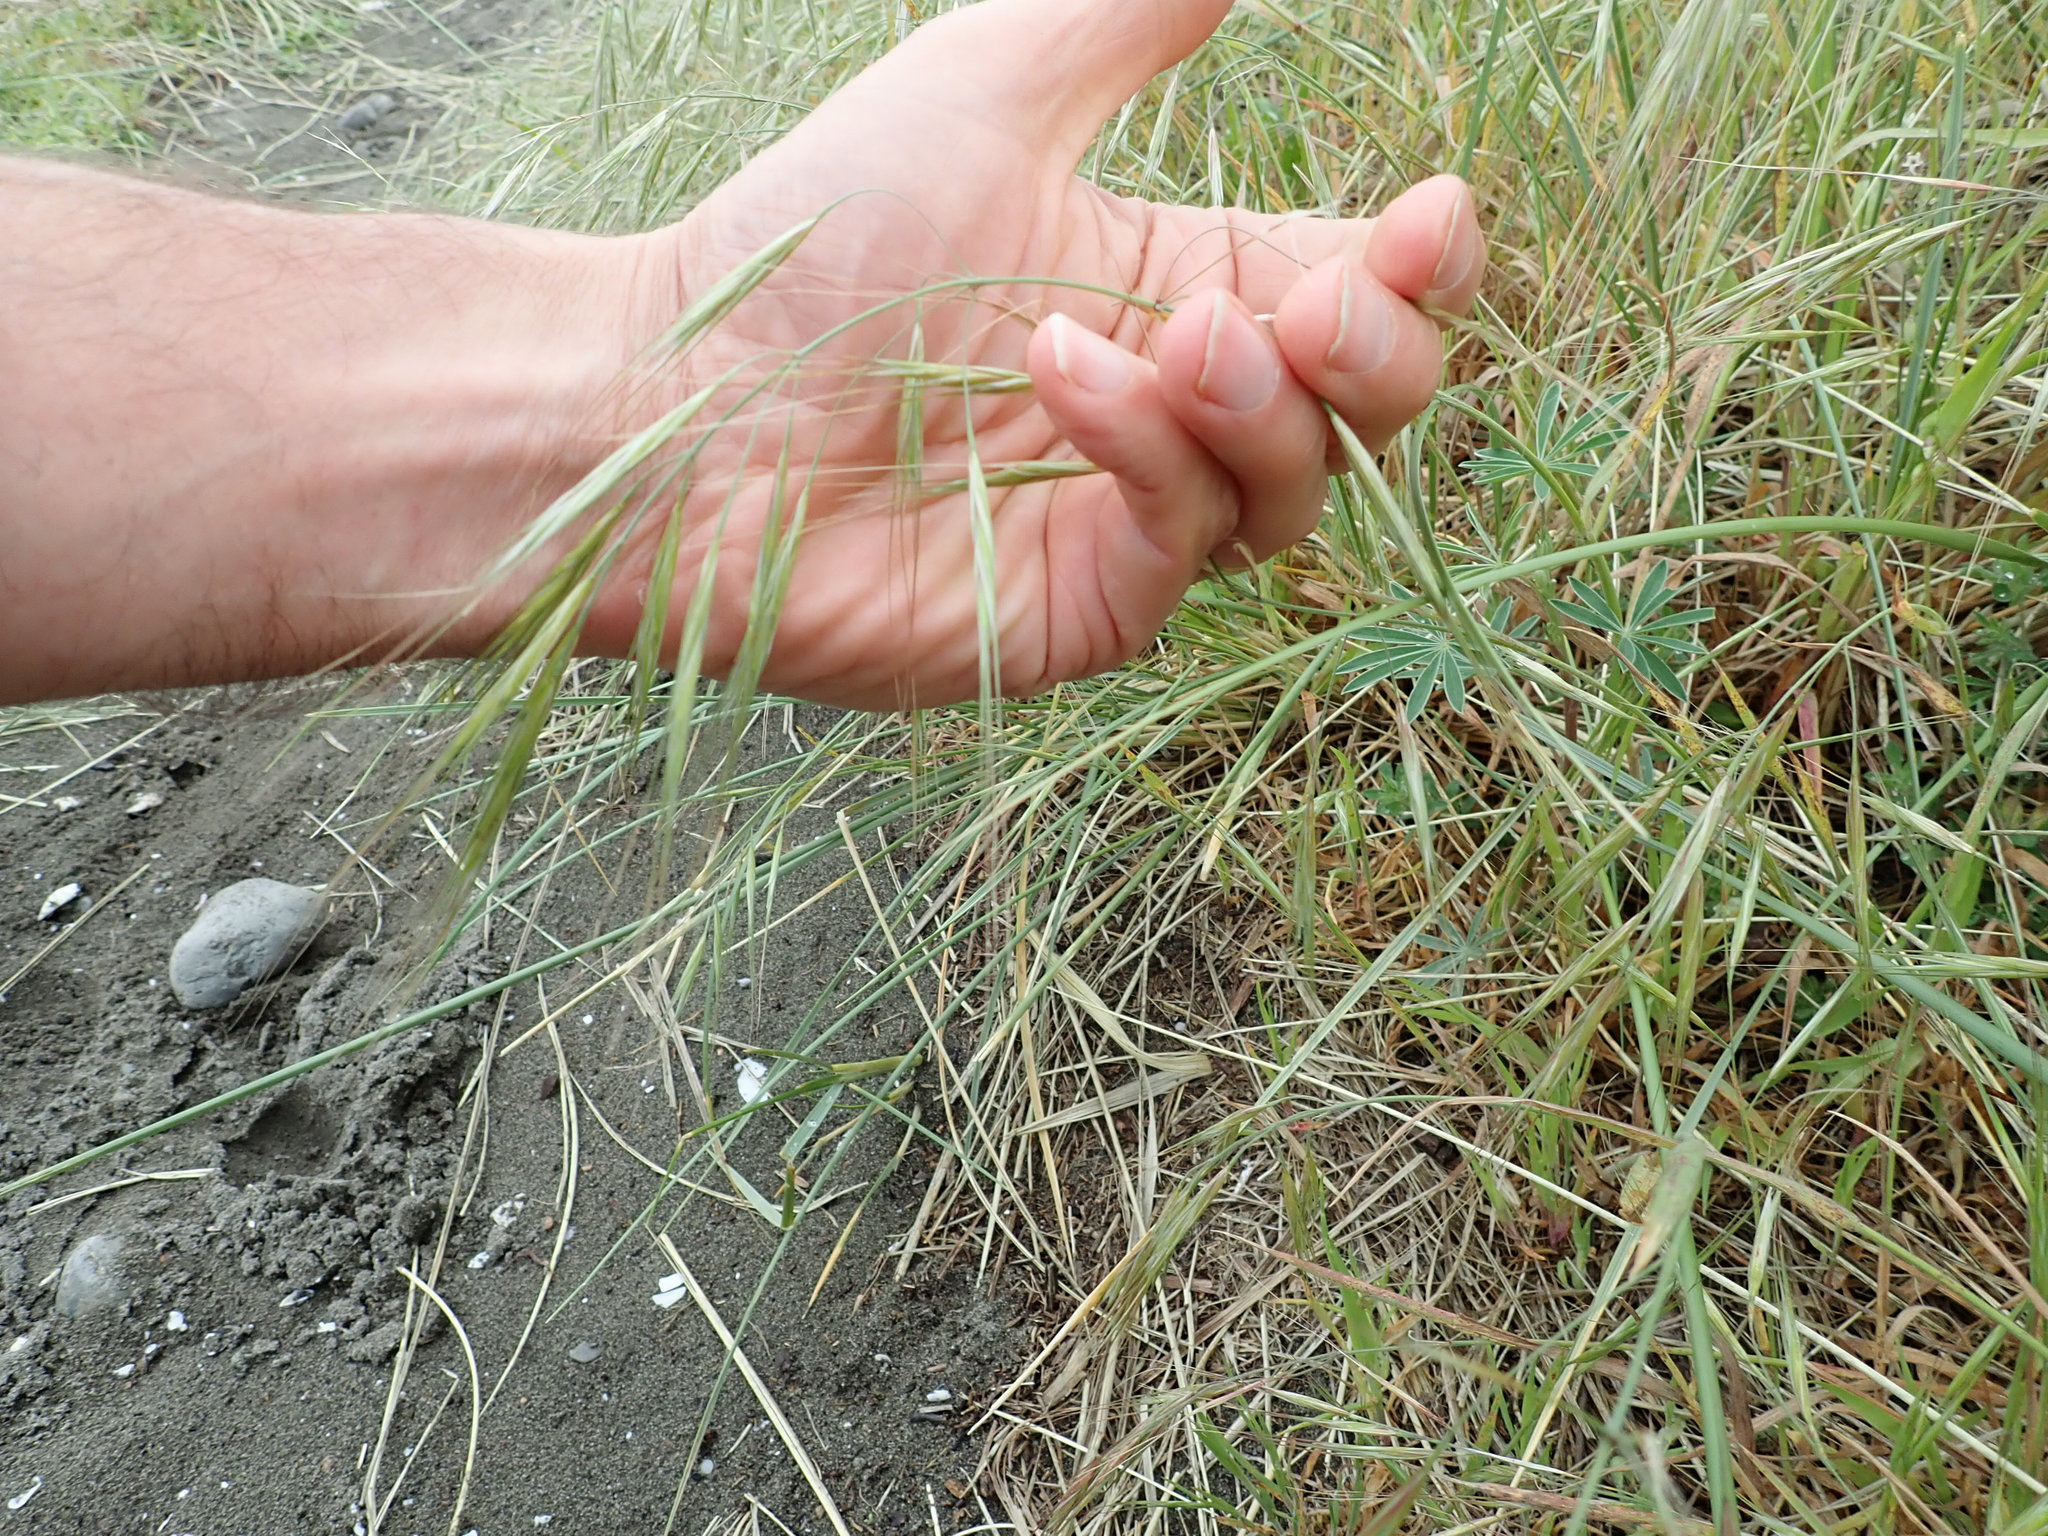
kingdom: Plantae
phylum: Tracheophyta
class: Liliopsida
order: Poales
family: Poaceae
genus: Bromus
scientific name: Bromus diandrus
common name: Ripgut brome
